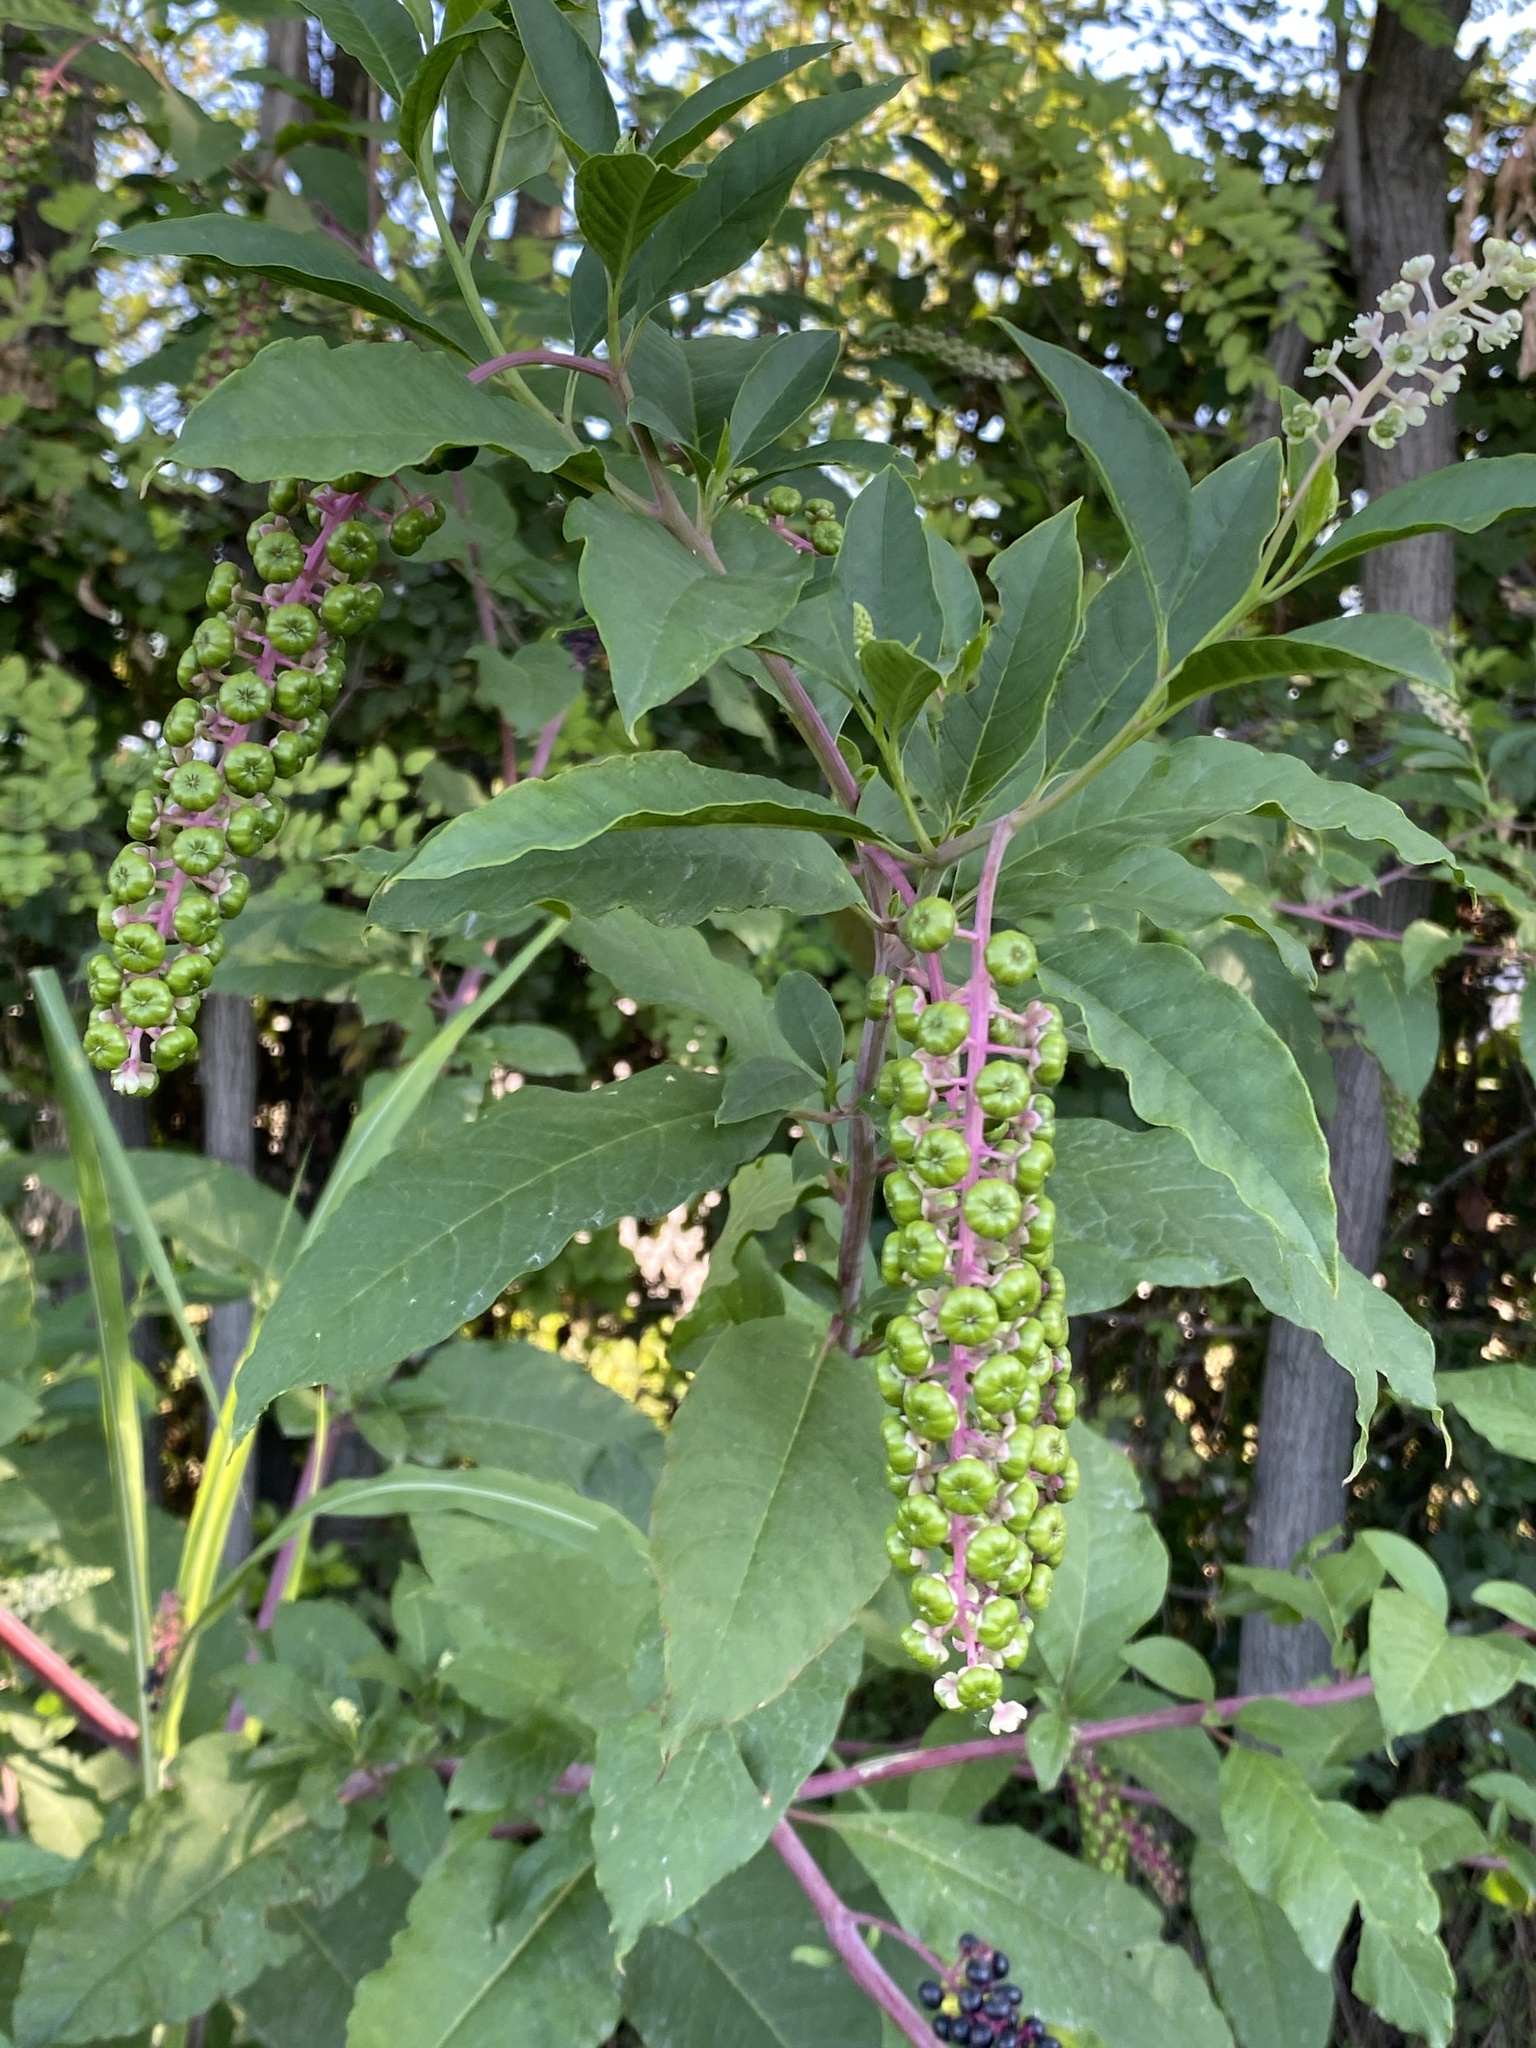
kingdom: Plantae
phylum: Tracheophyta
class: Magnoliopsida
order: Caryophyllales
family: Phytolaccaceae
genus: Phytolacca
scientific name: Phytolacca americana
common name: American pokeweed
